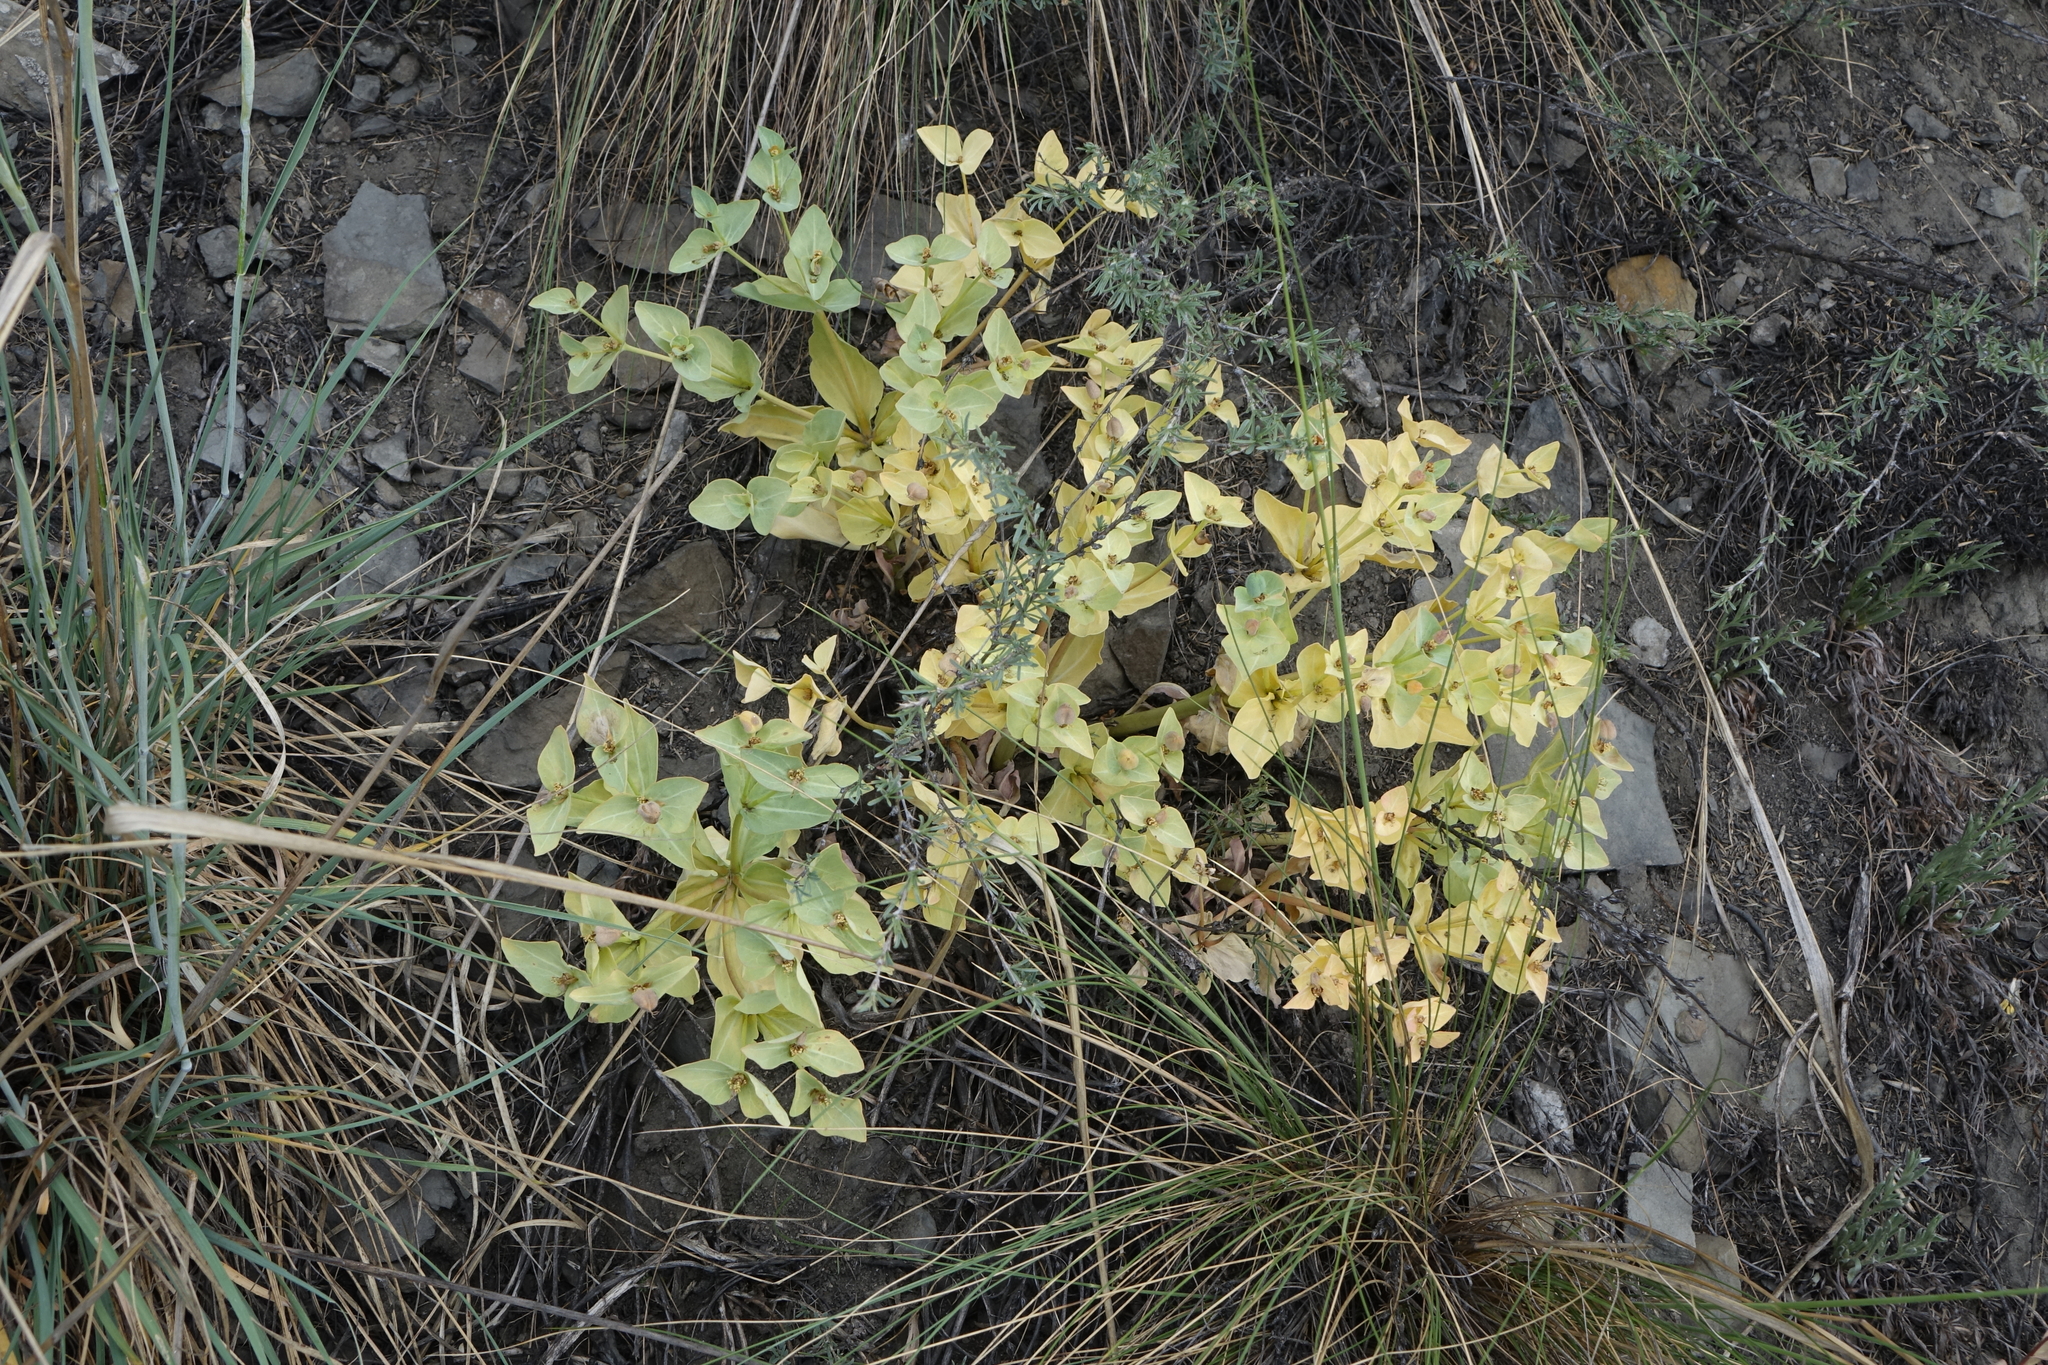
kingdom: Plantae
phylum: Tracheophyta
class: Magnoliopsida
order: Malpighiales
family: Euphorbiaceae
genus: Euphorbia
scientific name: Euphorbia mongolica
